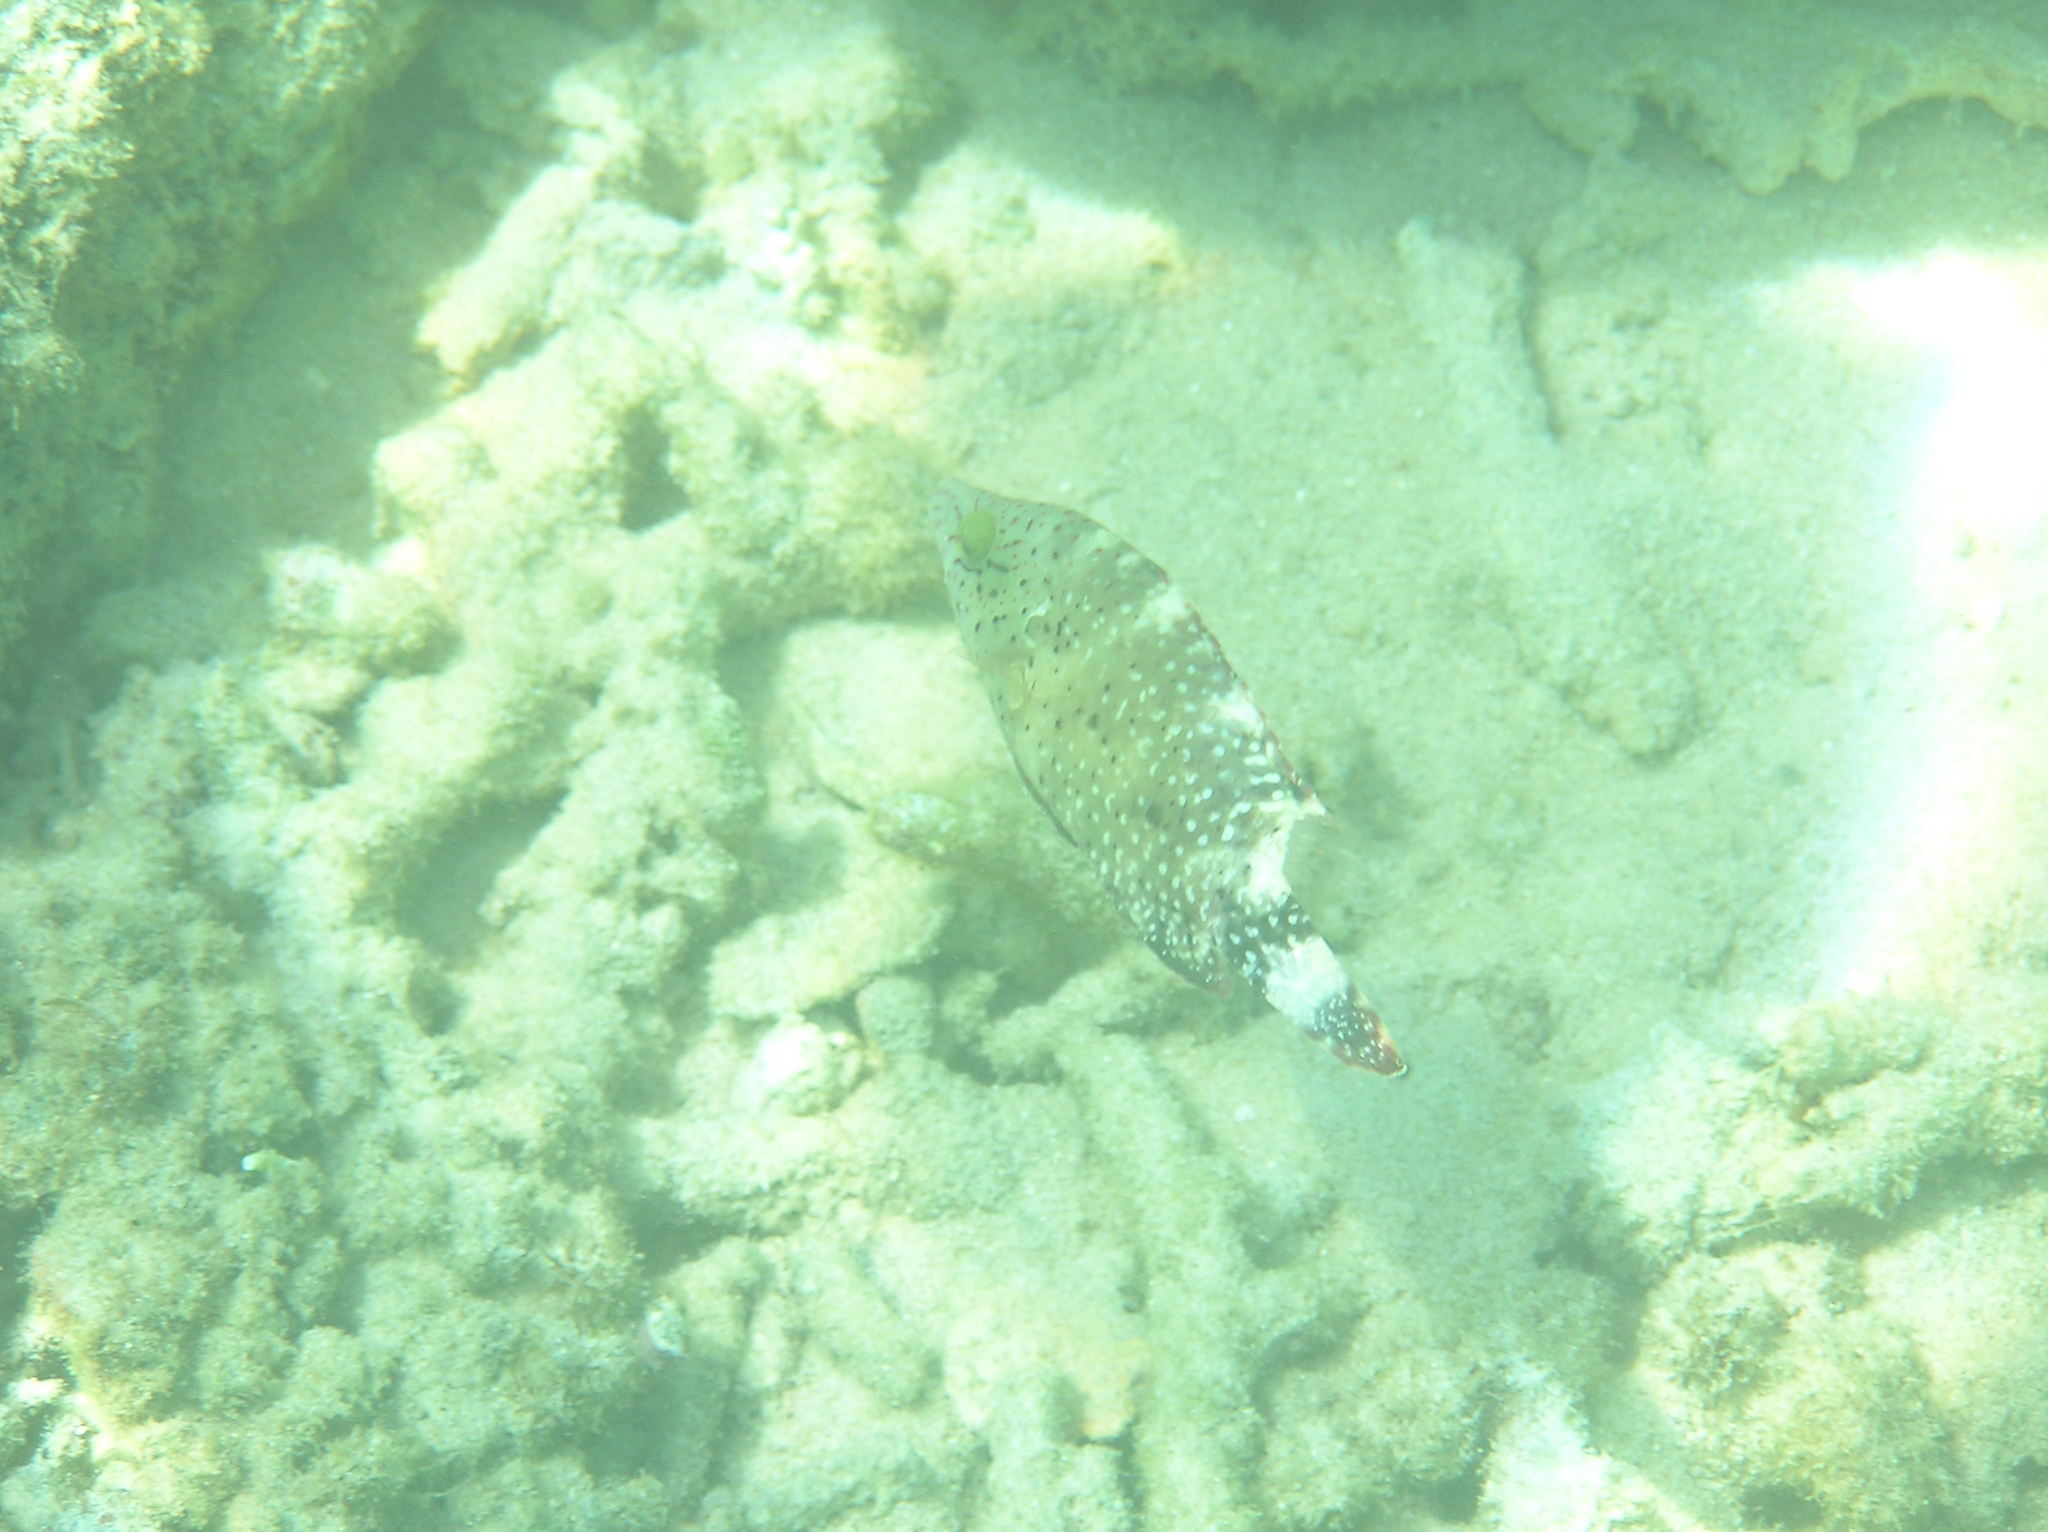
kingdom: Animalia
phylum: Chordata
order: Perciformes
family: Labridae
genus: Cheilinus
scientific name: Cheilinus chlorourus
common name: Floral wrasse
